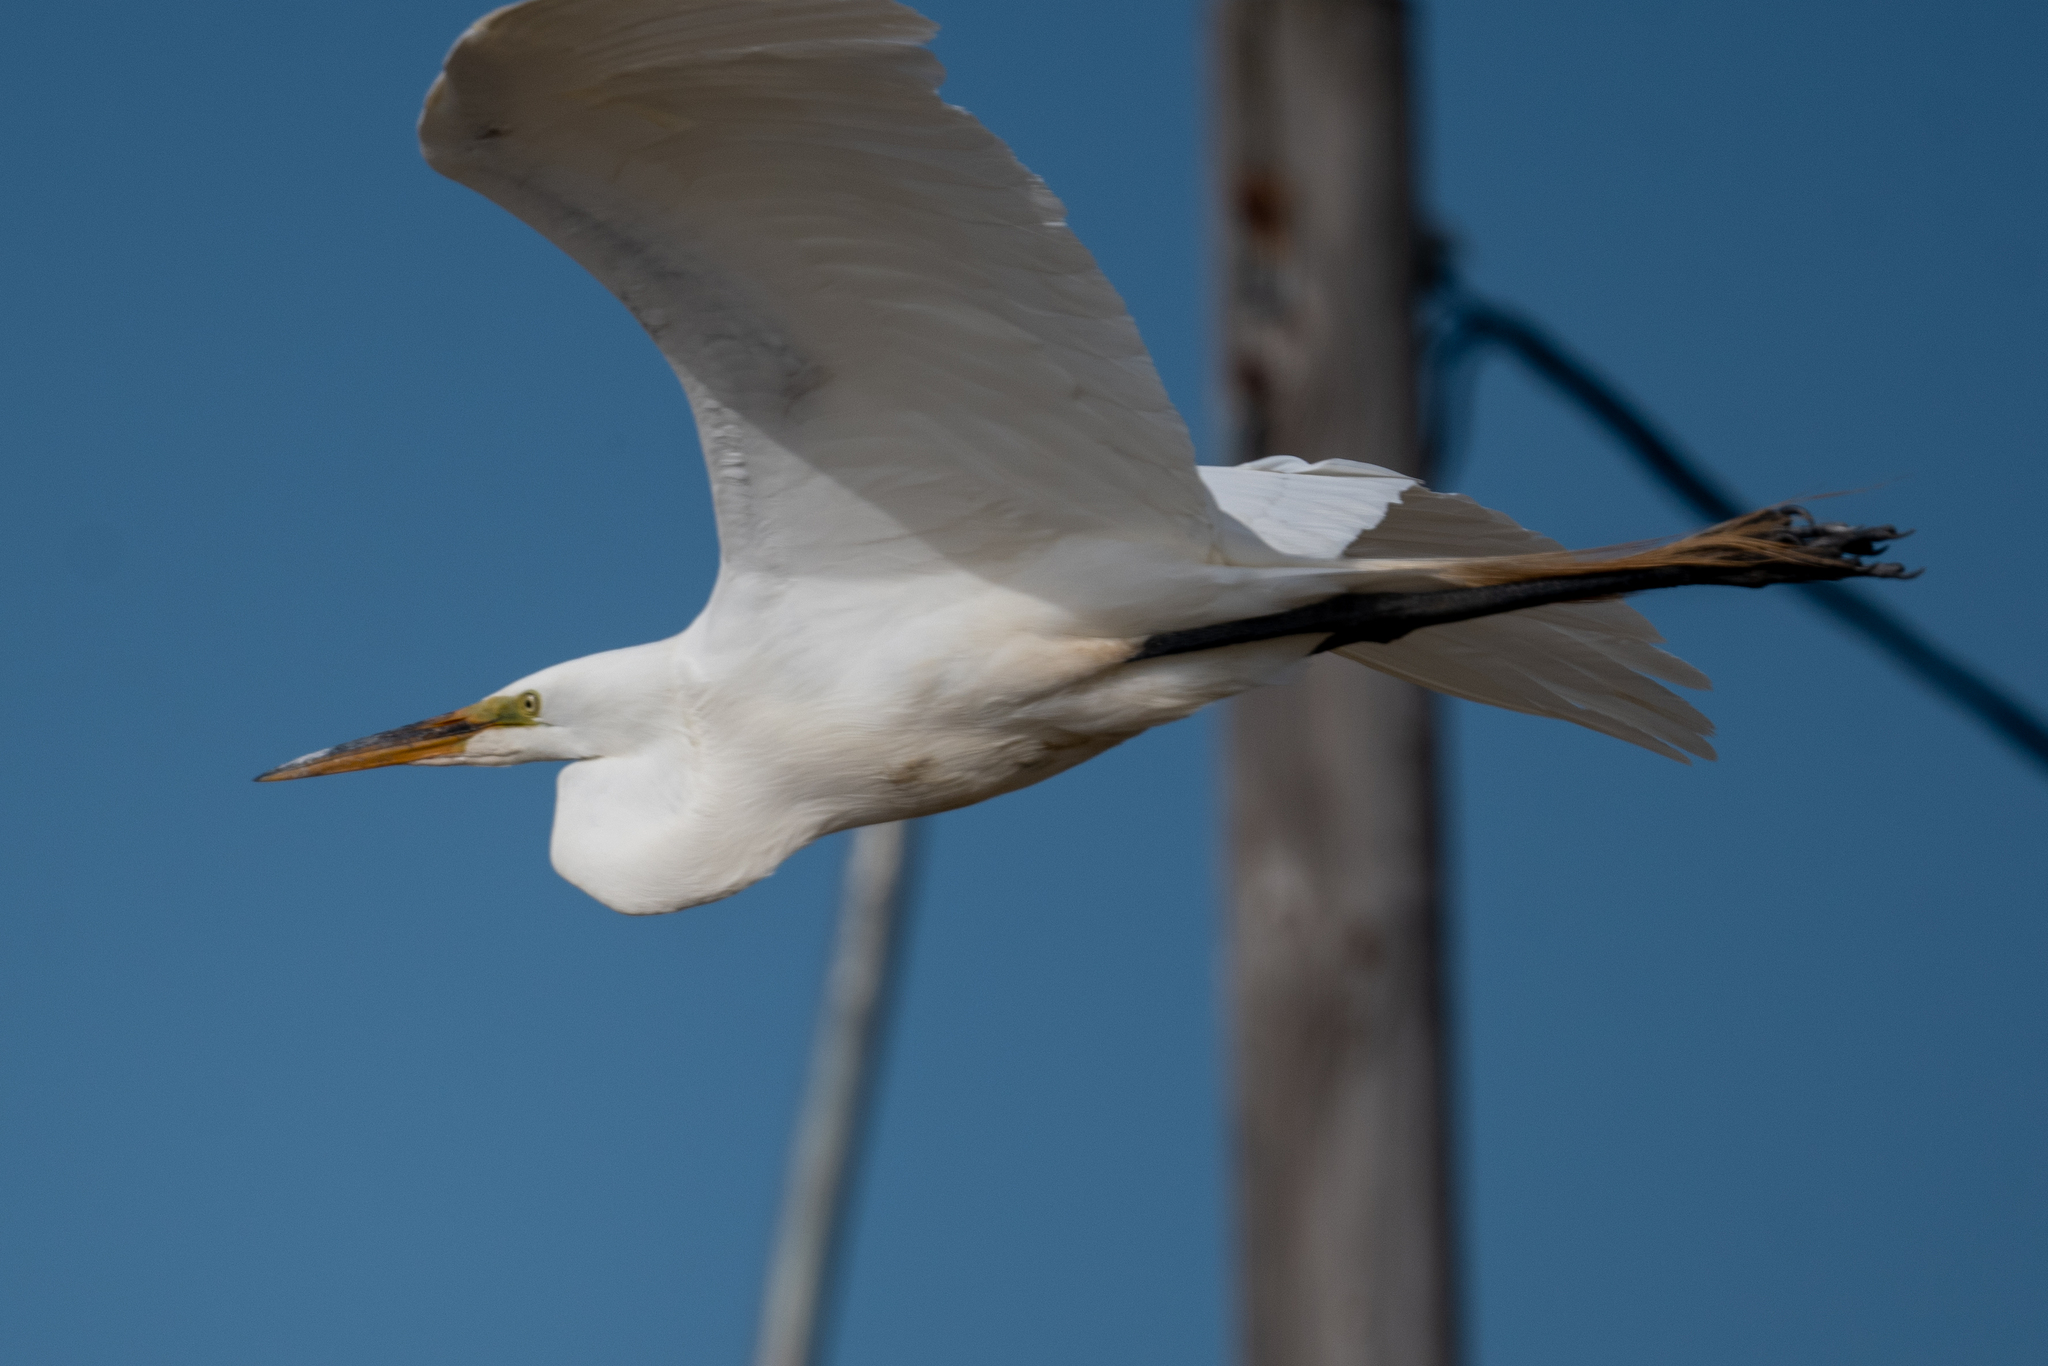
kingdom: Animalia
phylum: Chordata
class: Aves
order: Pelecaniformes
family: Ardeidae
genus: Ardea
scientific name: Ardea alba
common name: Great egret
